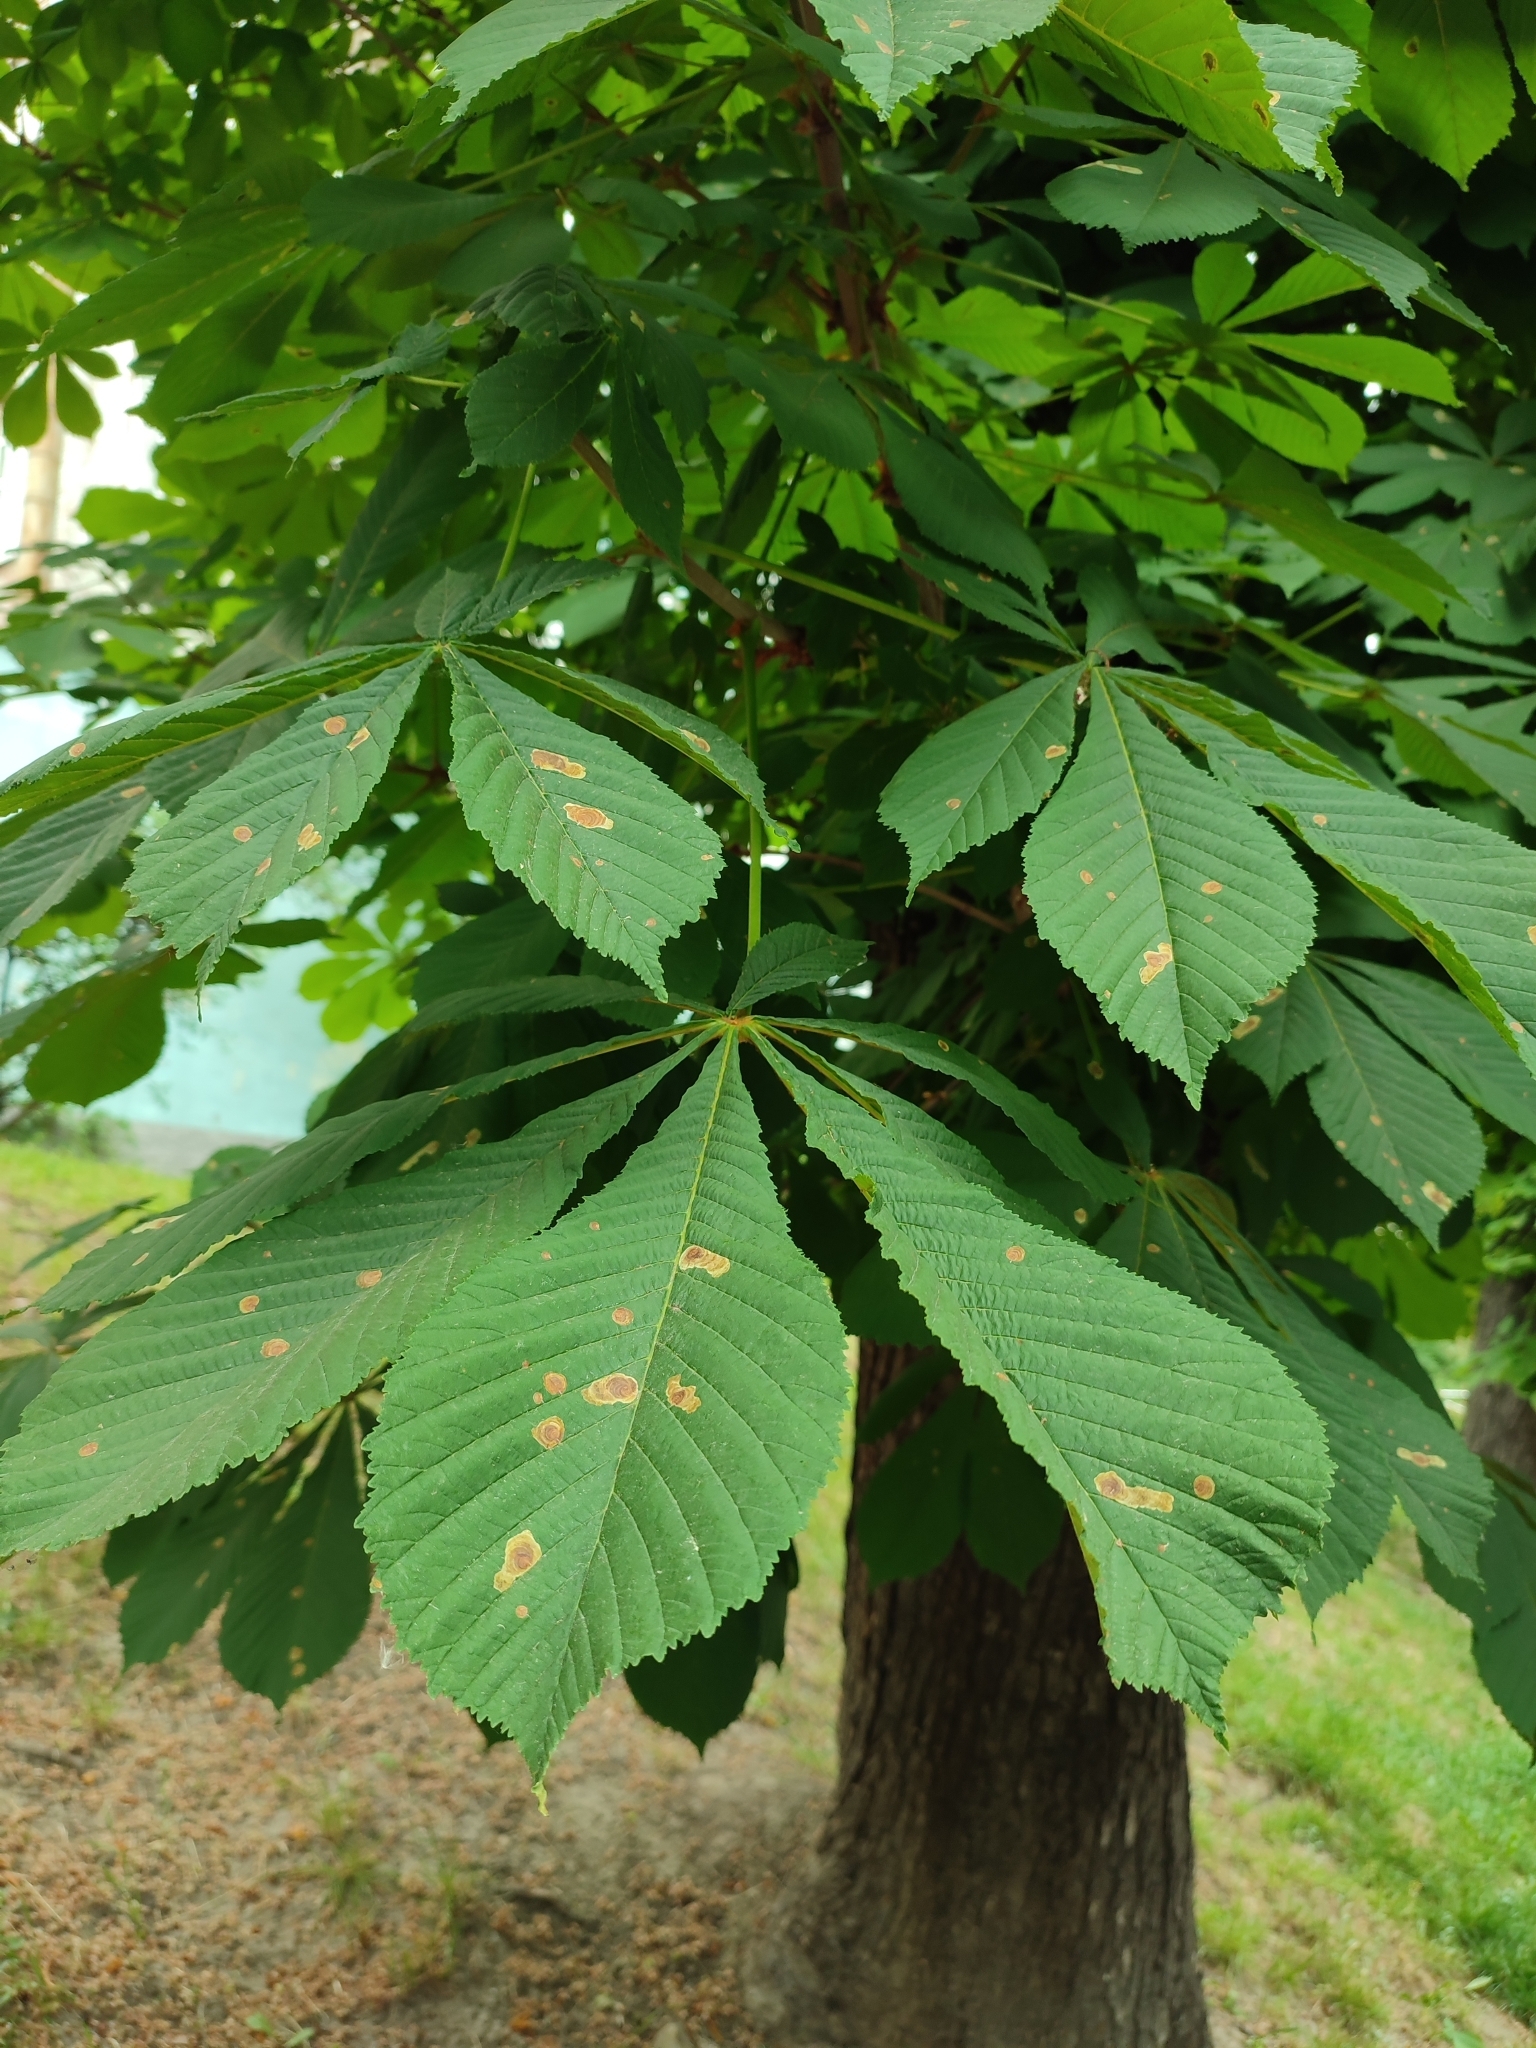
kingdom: Animalia
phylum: Arthropoda
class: Insecta
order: Lepidoptera
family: Gracillariidae
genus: Cameraria
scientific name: Cameraria ohridella
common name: Horse-chestnut leaf-miner
